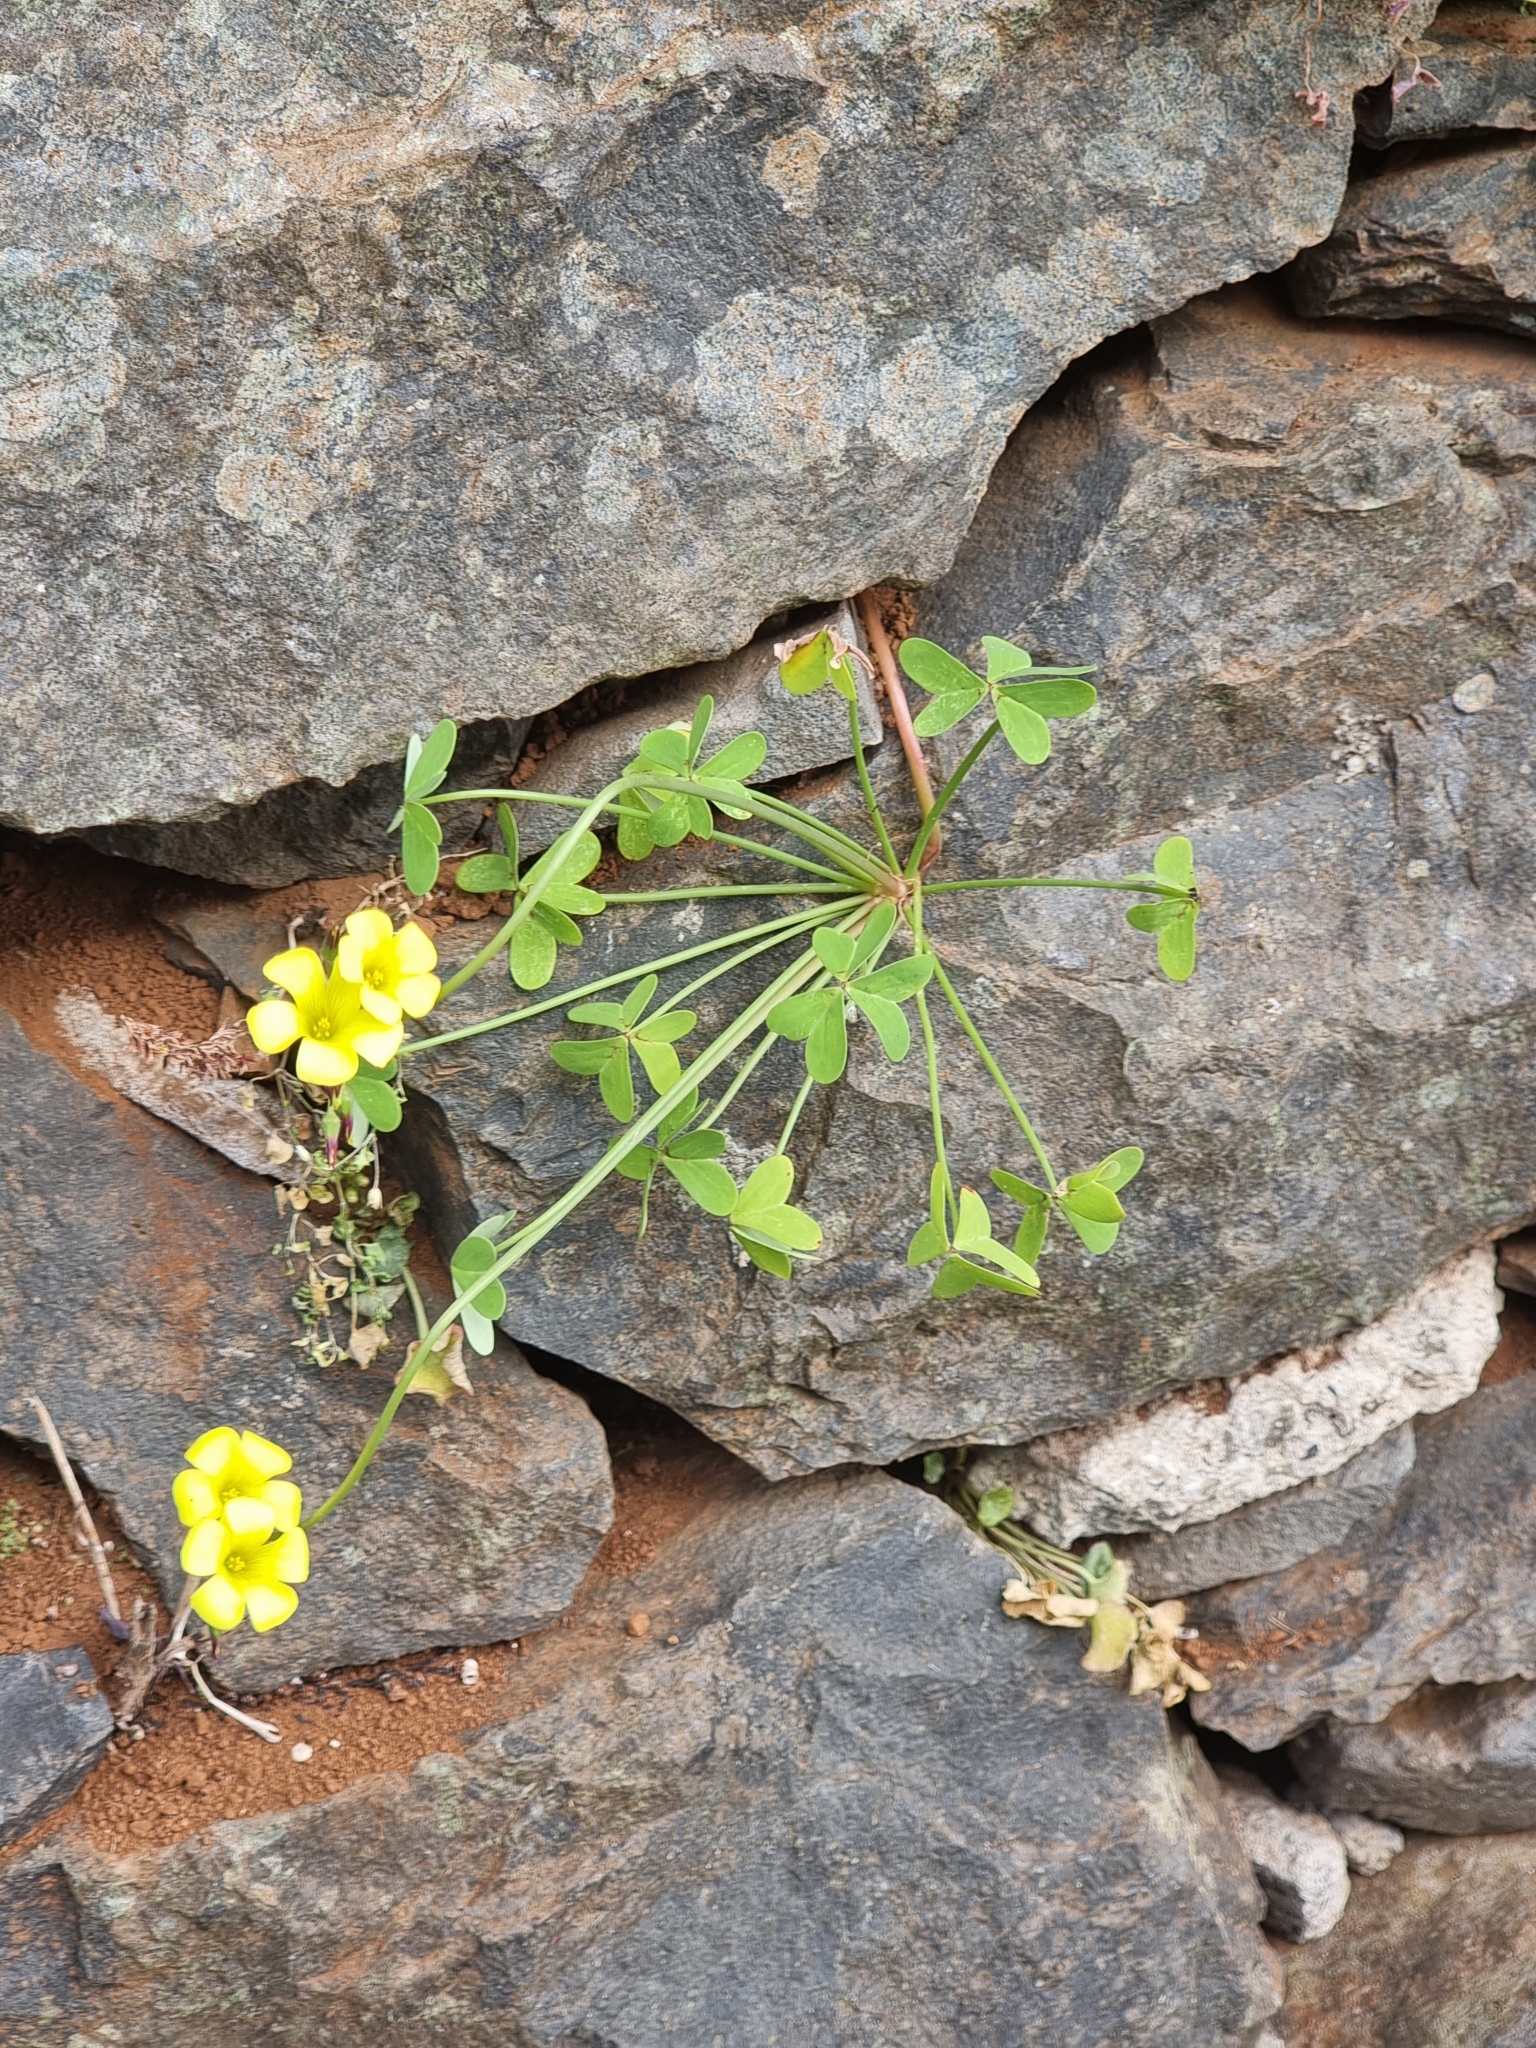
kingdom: Plantae
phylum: Tracheophyta
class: Magnoliopsida
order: Oxalidales
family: Oxalidaceae
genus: Oxalis
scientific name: Oxalis pes-caprae
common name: Bermuda-buttercup
